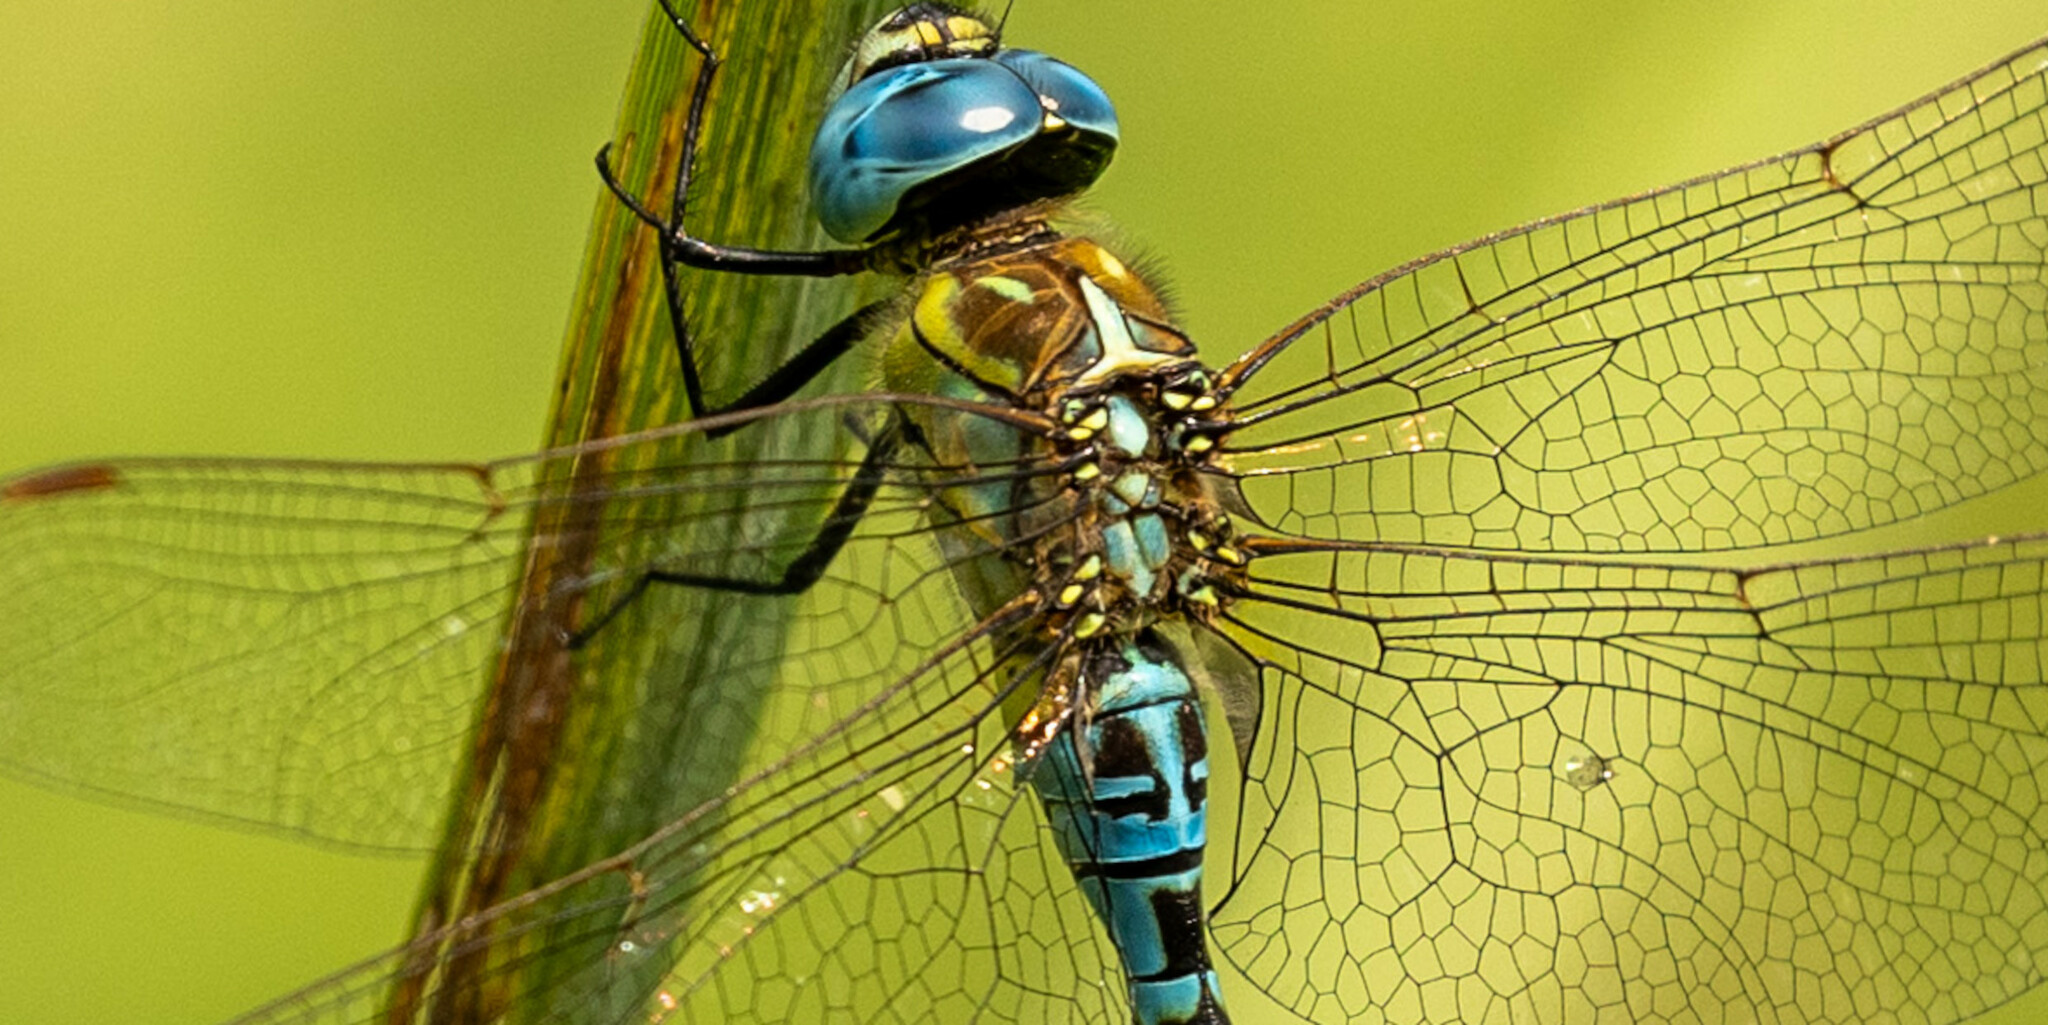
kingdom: Animalia
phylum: Arthropoda
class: Insecta
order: Odonata
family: Aeshnidae
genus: Aeshna
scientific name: Aeshna affinis
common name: Southern migrant hawker
